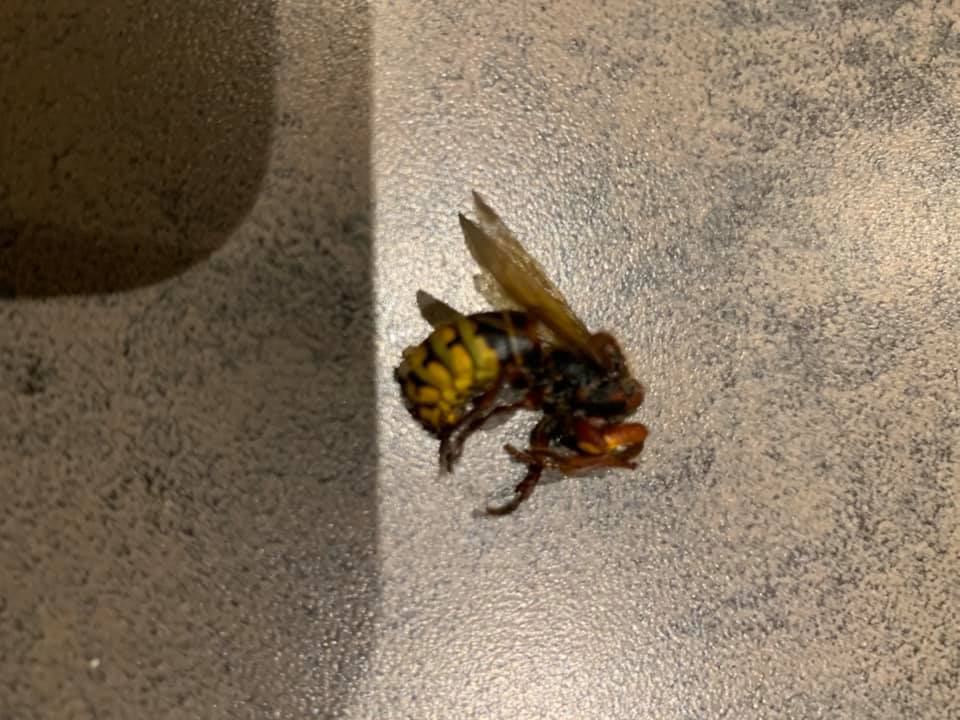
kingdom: Animalia
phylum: Arthropoda
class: Insecta
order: Hymenoptera
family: Vespidae
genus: Vespa
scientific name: Vespa crabro
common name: Hornet
